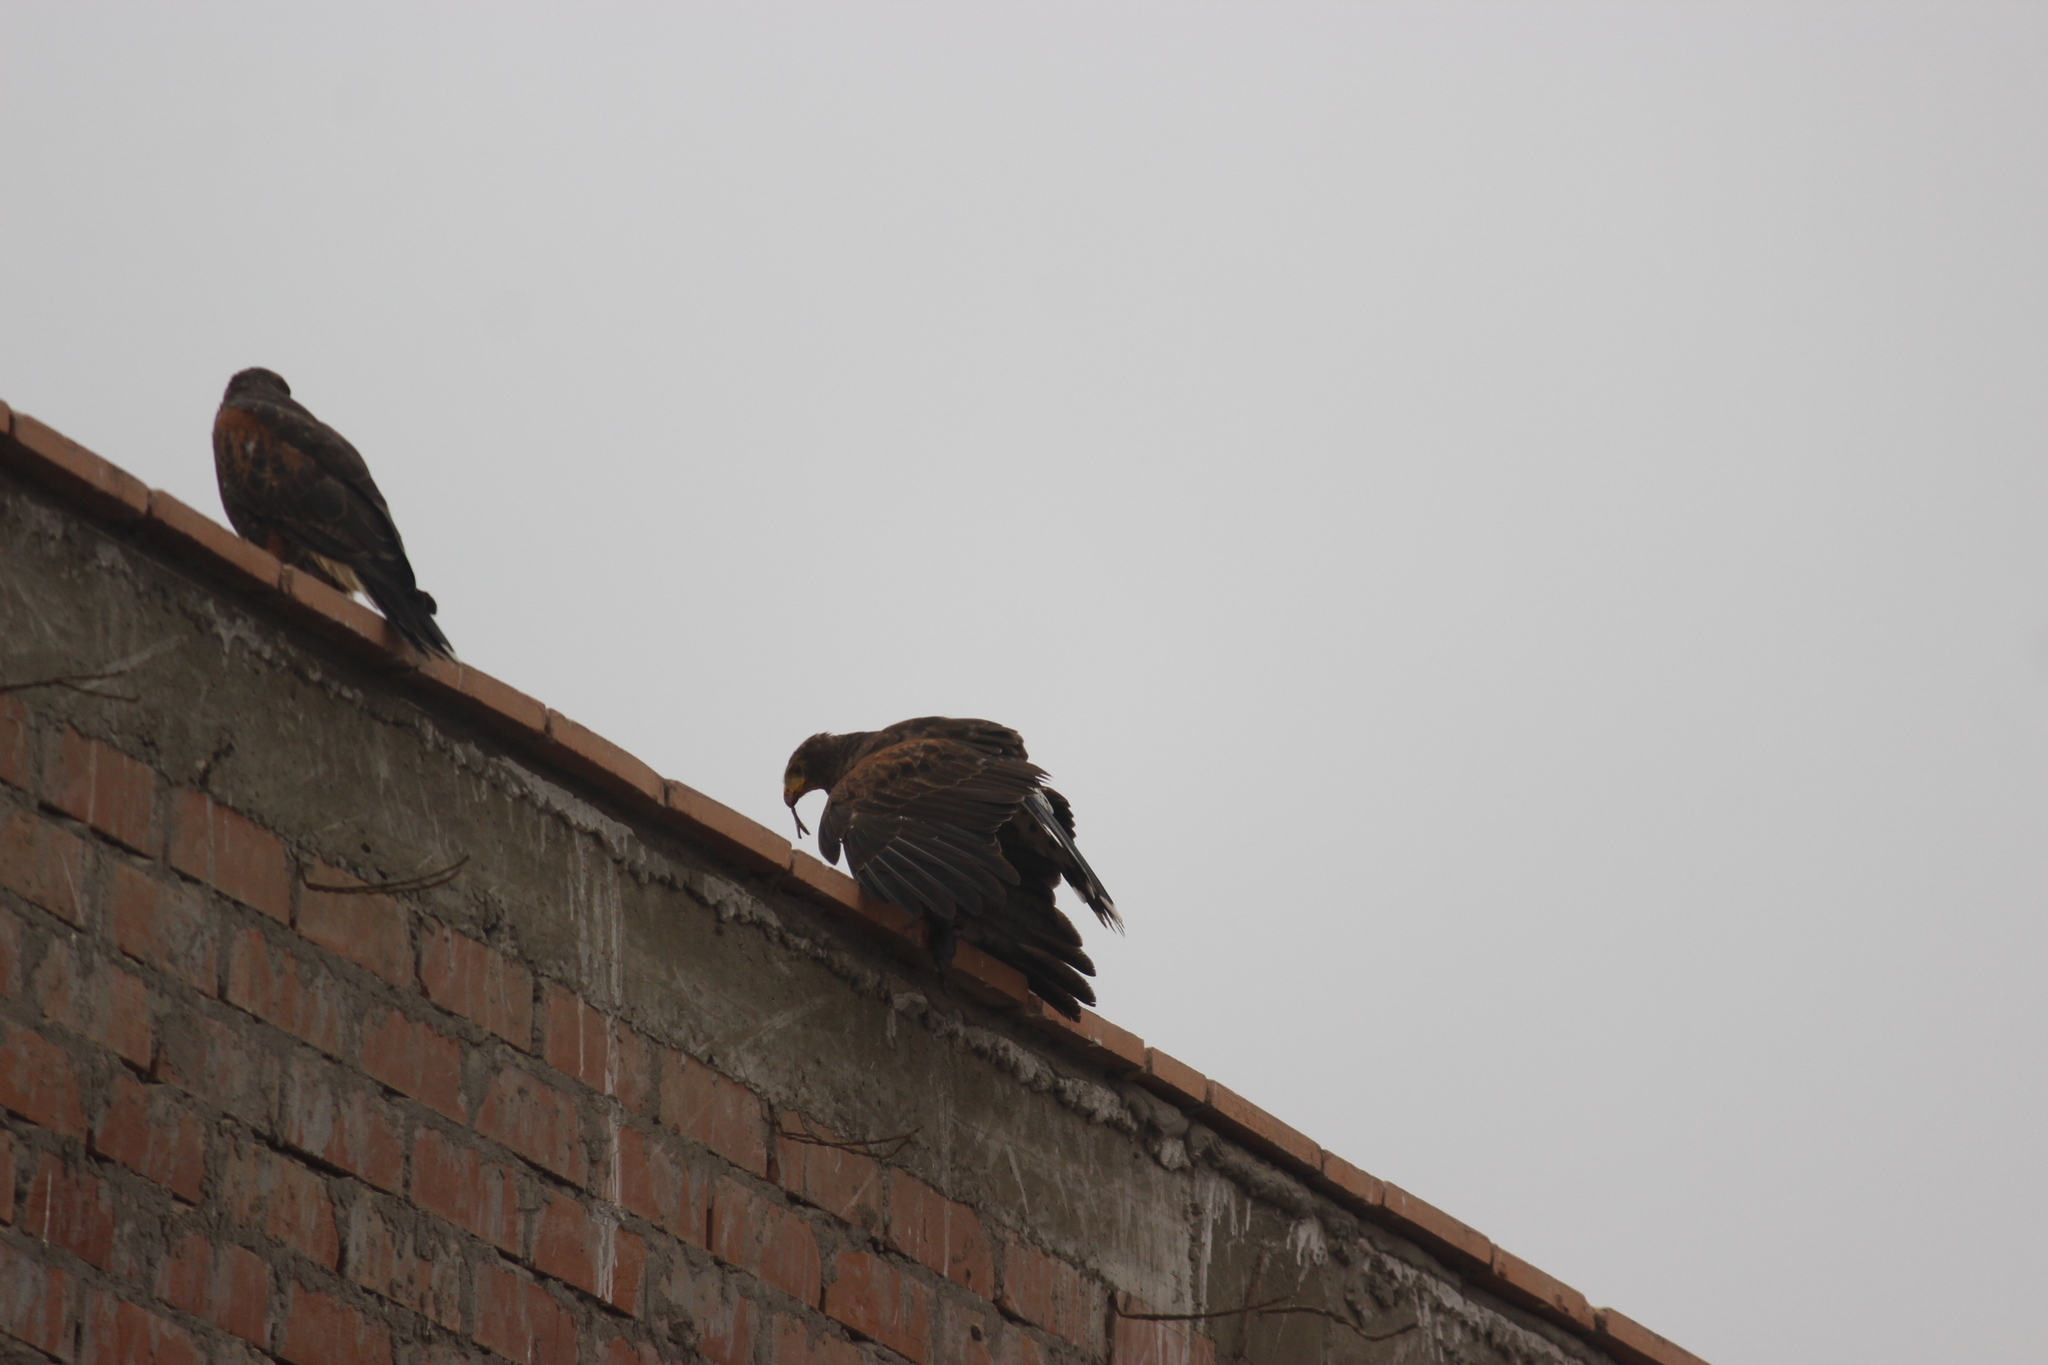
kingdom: Animalia
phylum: Chordata
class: Aves
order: Accipitriformes
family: Accipitridae
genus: Parabuteo
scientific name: Parabuteo unicinctus
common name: Harris's hawk
